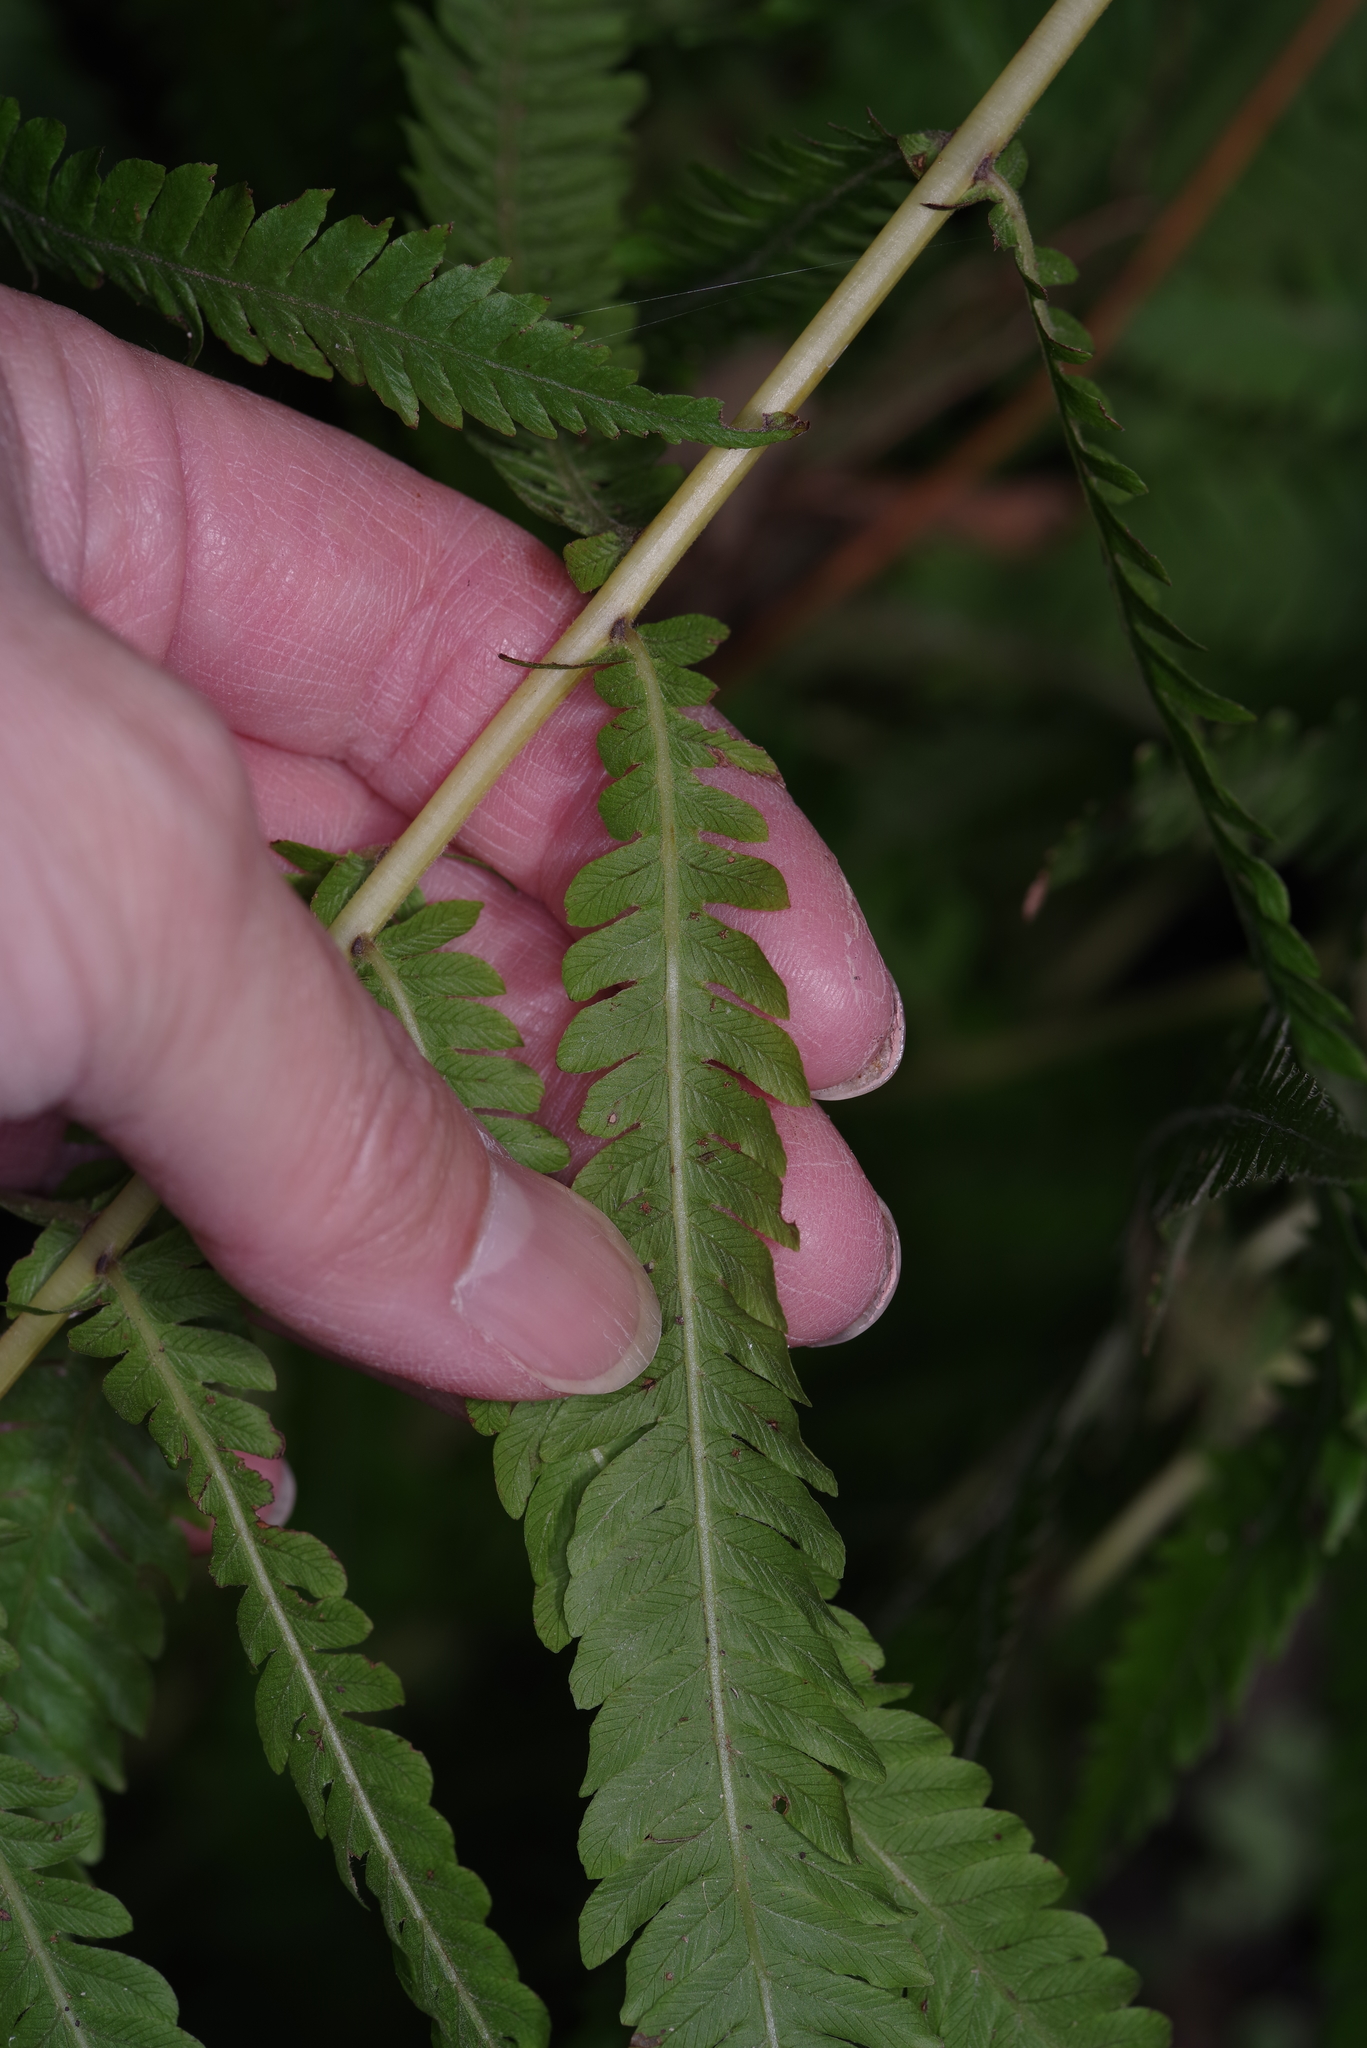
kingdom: Plantae
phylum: Tracheophyta
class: Polypodiopsida
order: Polypodiales
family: Thelypteridaceae
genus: Pelazoneuron
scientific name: Pelazoneuron ovatum
